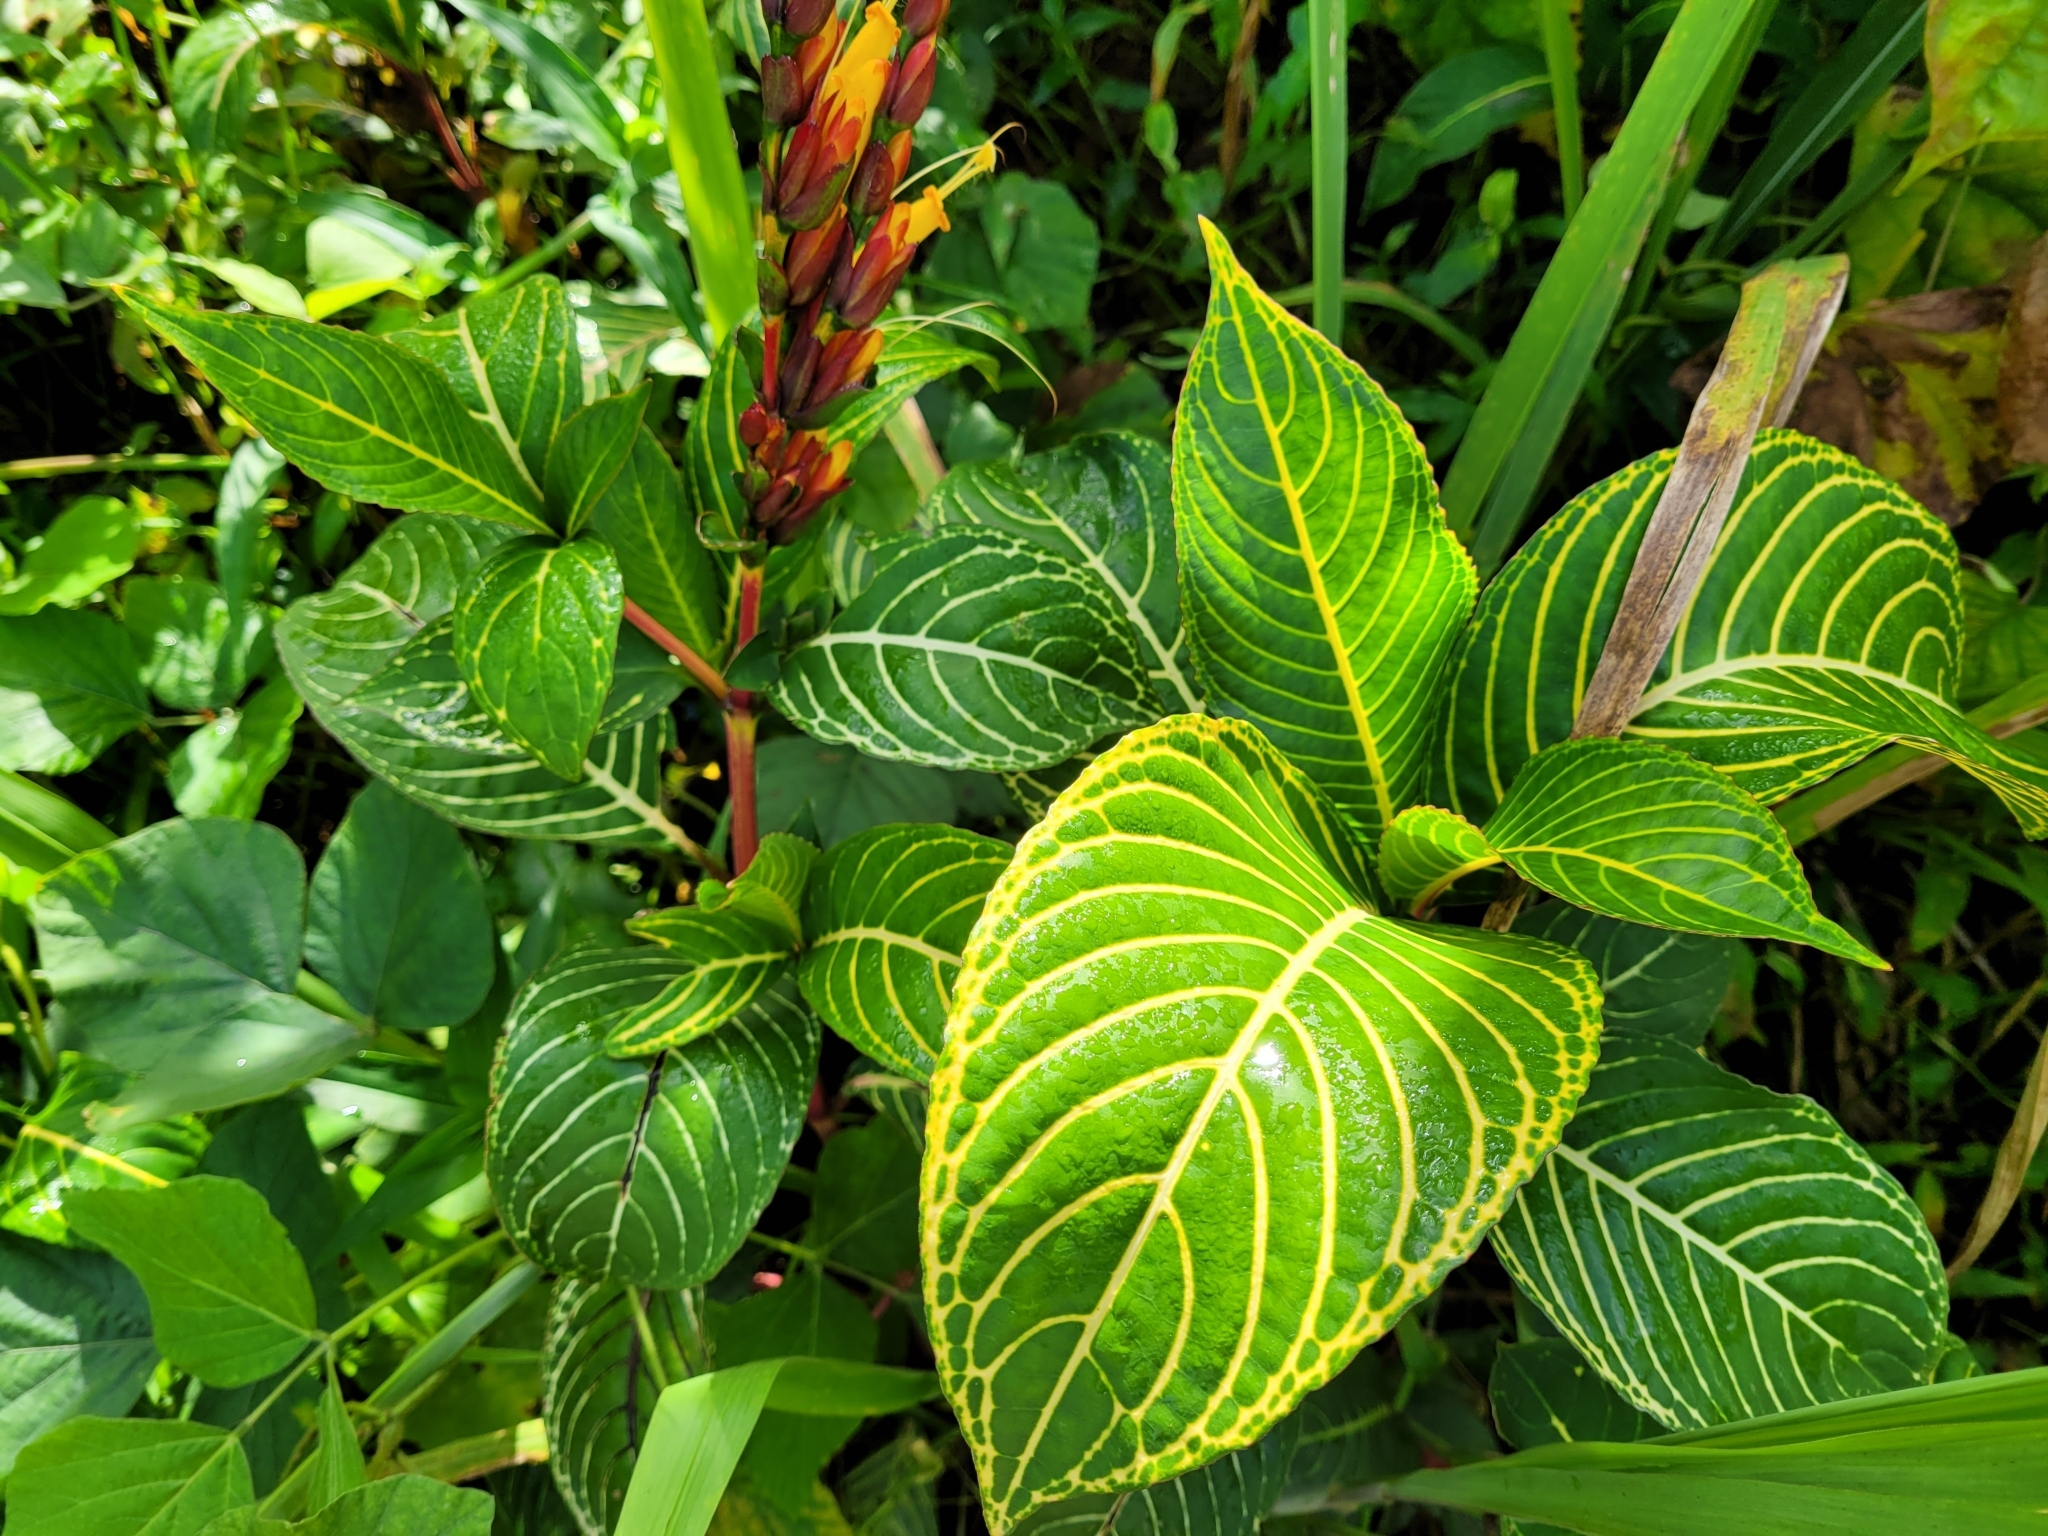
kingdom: Plantae
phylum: Tracheophyta
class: Magnoliopsida
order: Lamiales
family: Acanthaceae
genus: Sanchezia
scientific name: Sanchezia parvibracteata
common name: Sanchezia
